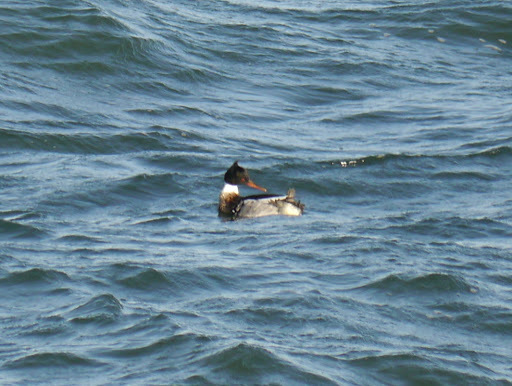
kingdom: Animalia
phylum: Chordata
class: Aves
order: Anseriformes
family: Anatidae
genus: Mergus
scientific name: Mergus serrator
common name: Red-breasted merganser
